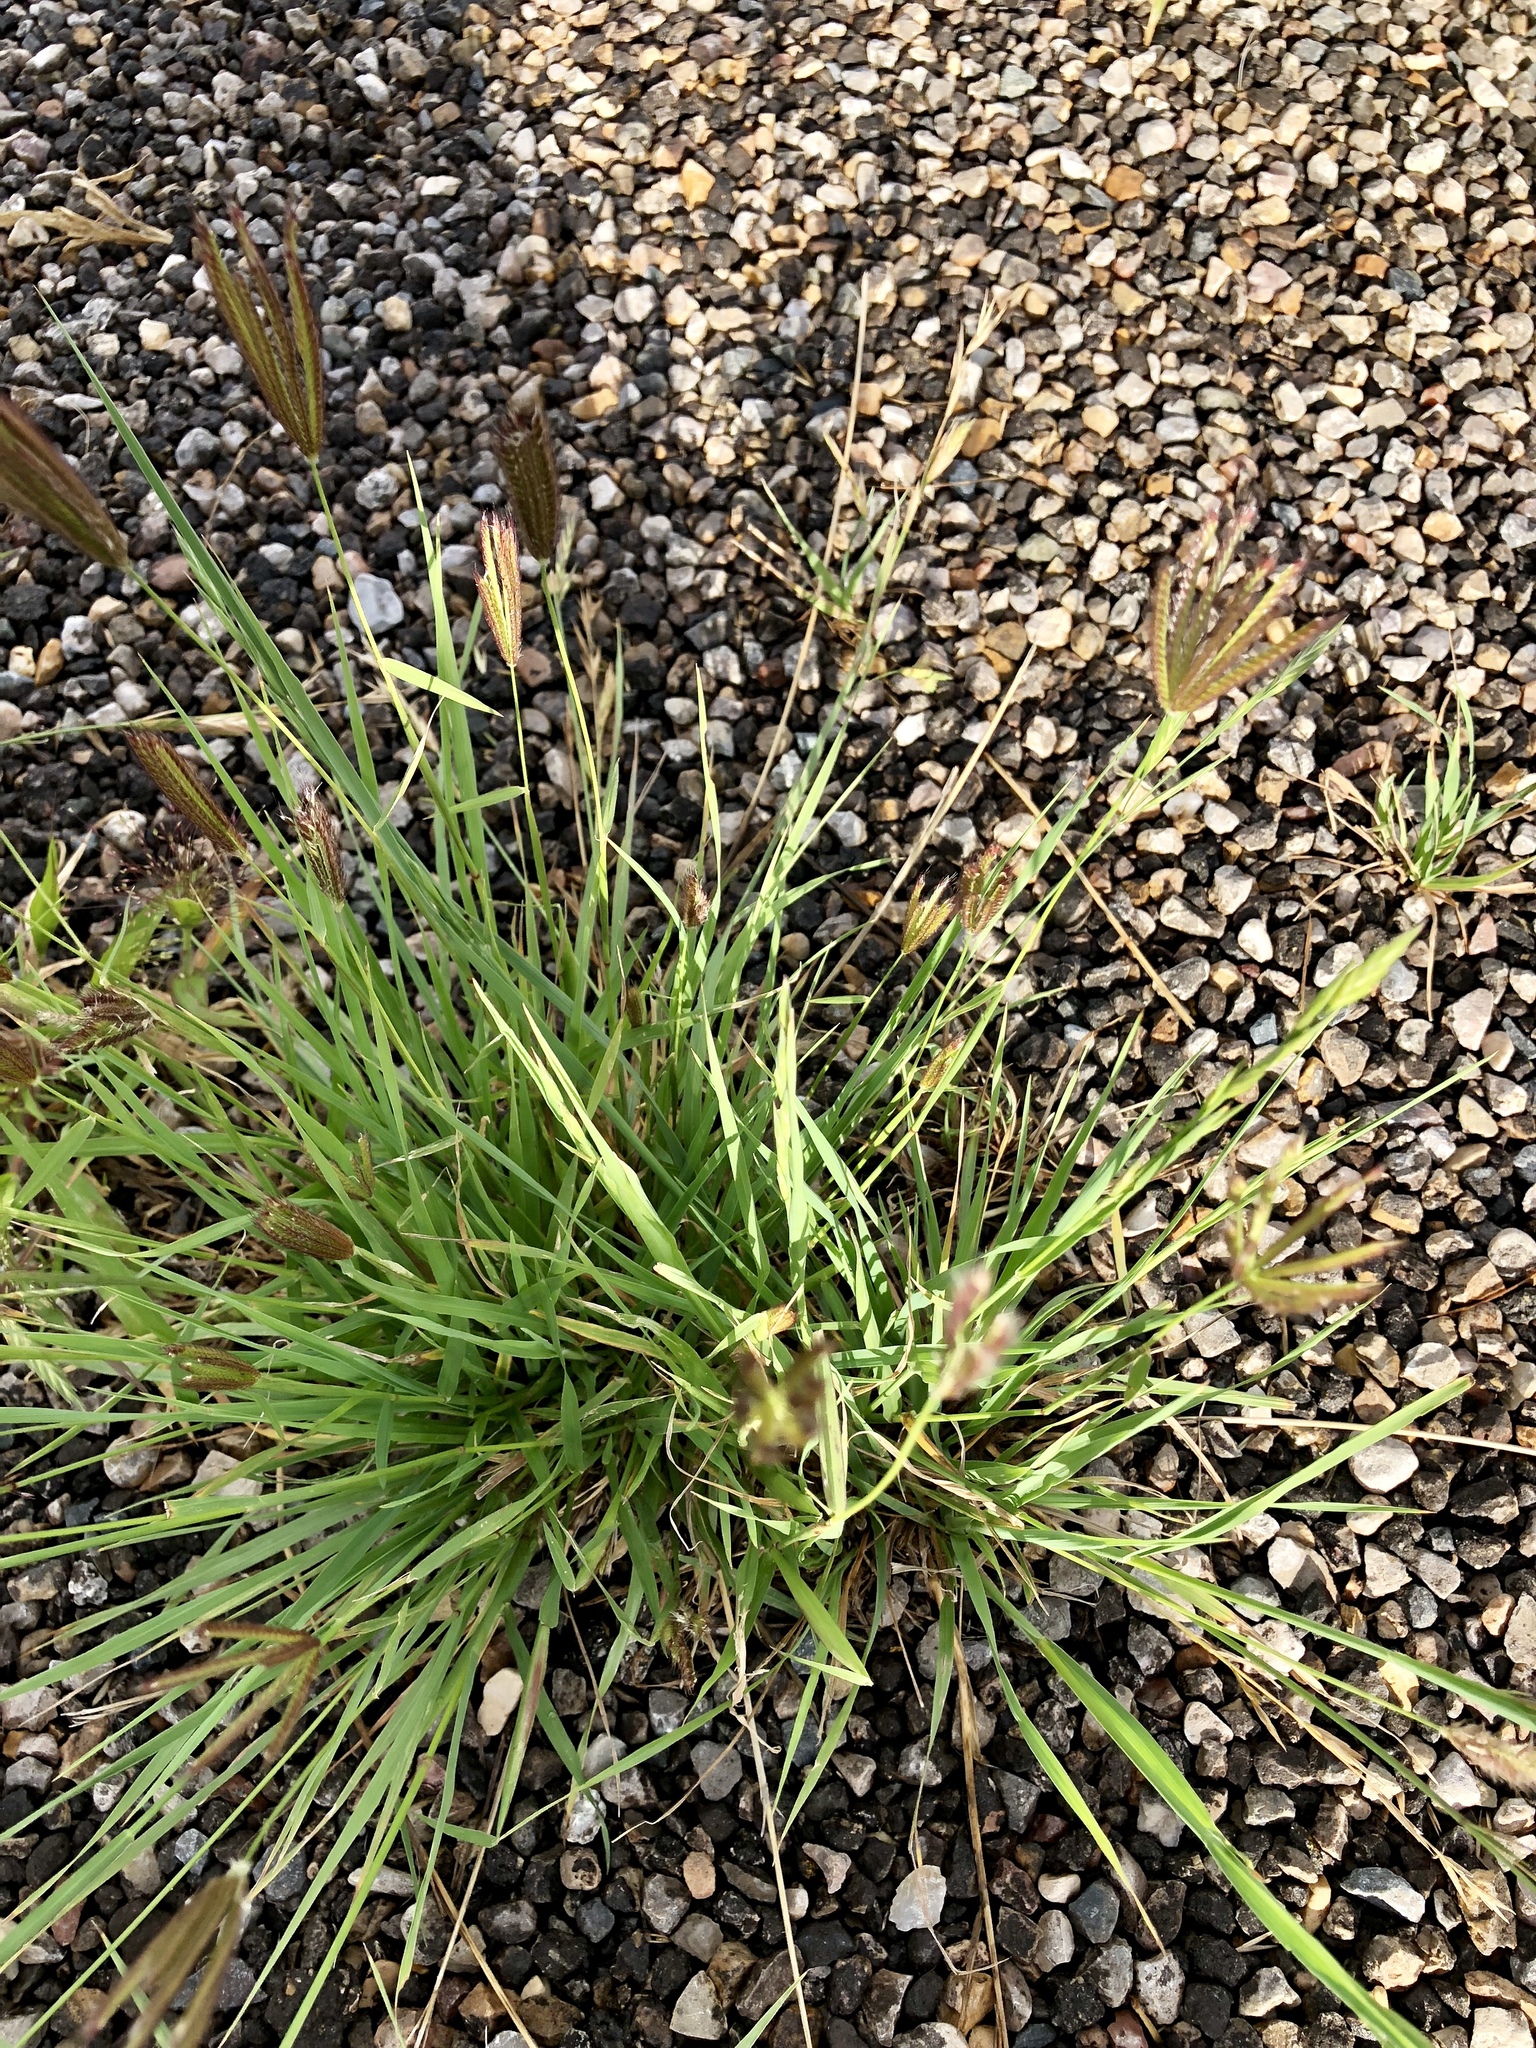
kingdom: Plantae
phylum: Tracheophyta
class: Liliopsida
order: Poales
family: Poaceae
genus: Chloris
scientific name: Chloris virgata
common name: Feathery rhodes-grass
